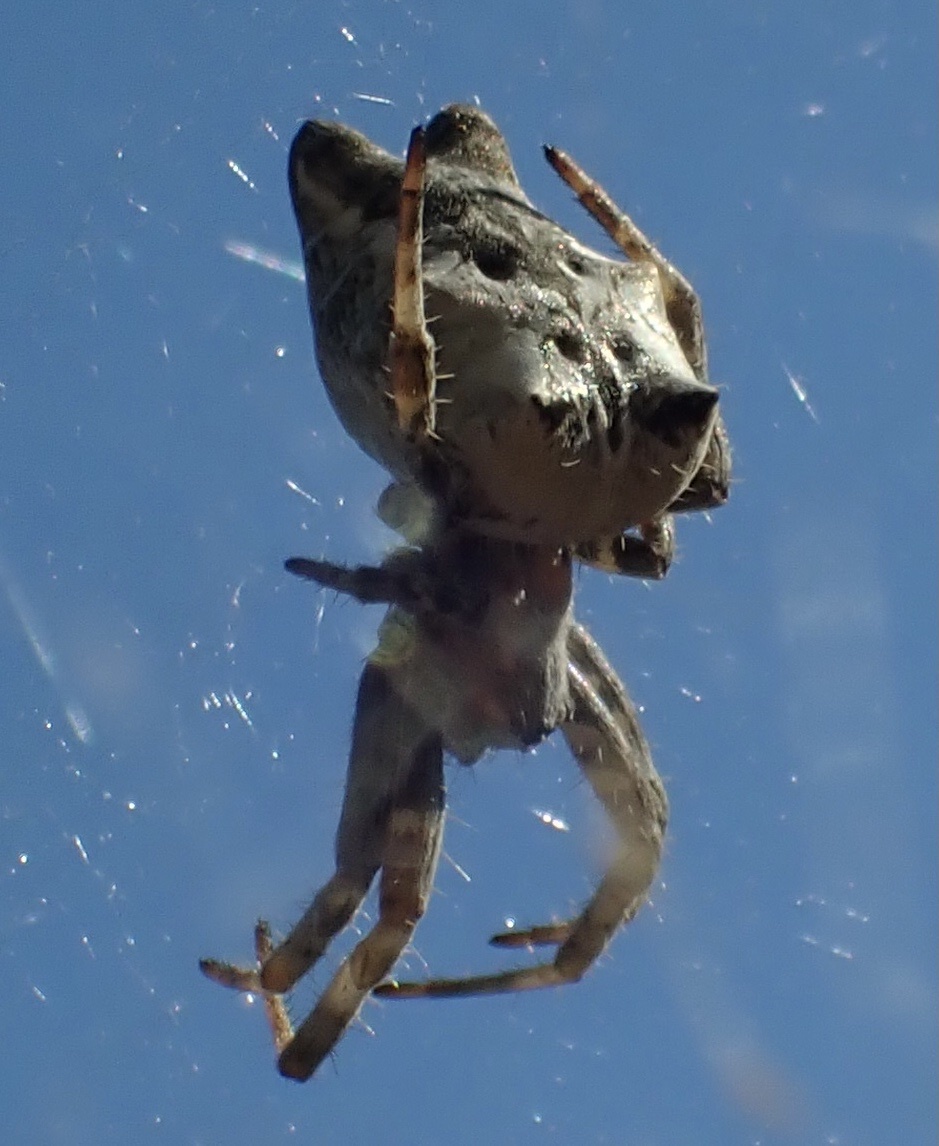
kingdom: Animalia
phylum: Arthropoda
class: Arachnida
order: Araneae
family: Araneidae
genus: Cyrtophora
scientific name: Cyrtophora citricola
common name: Orb weavers
